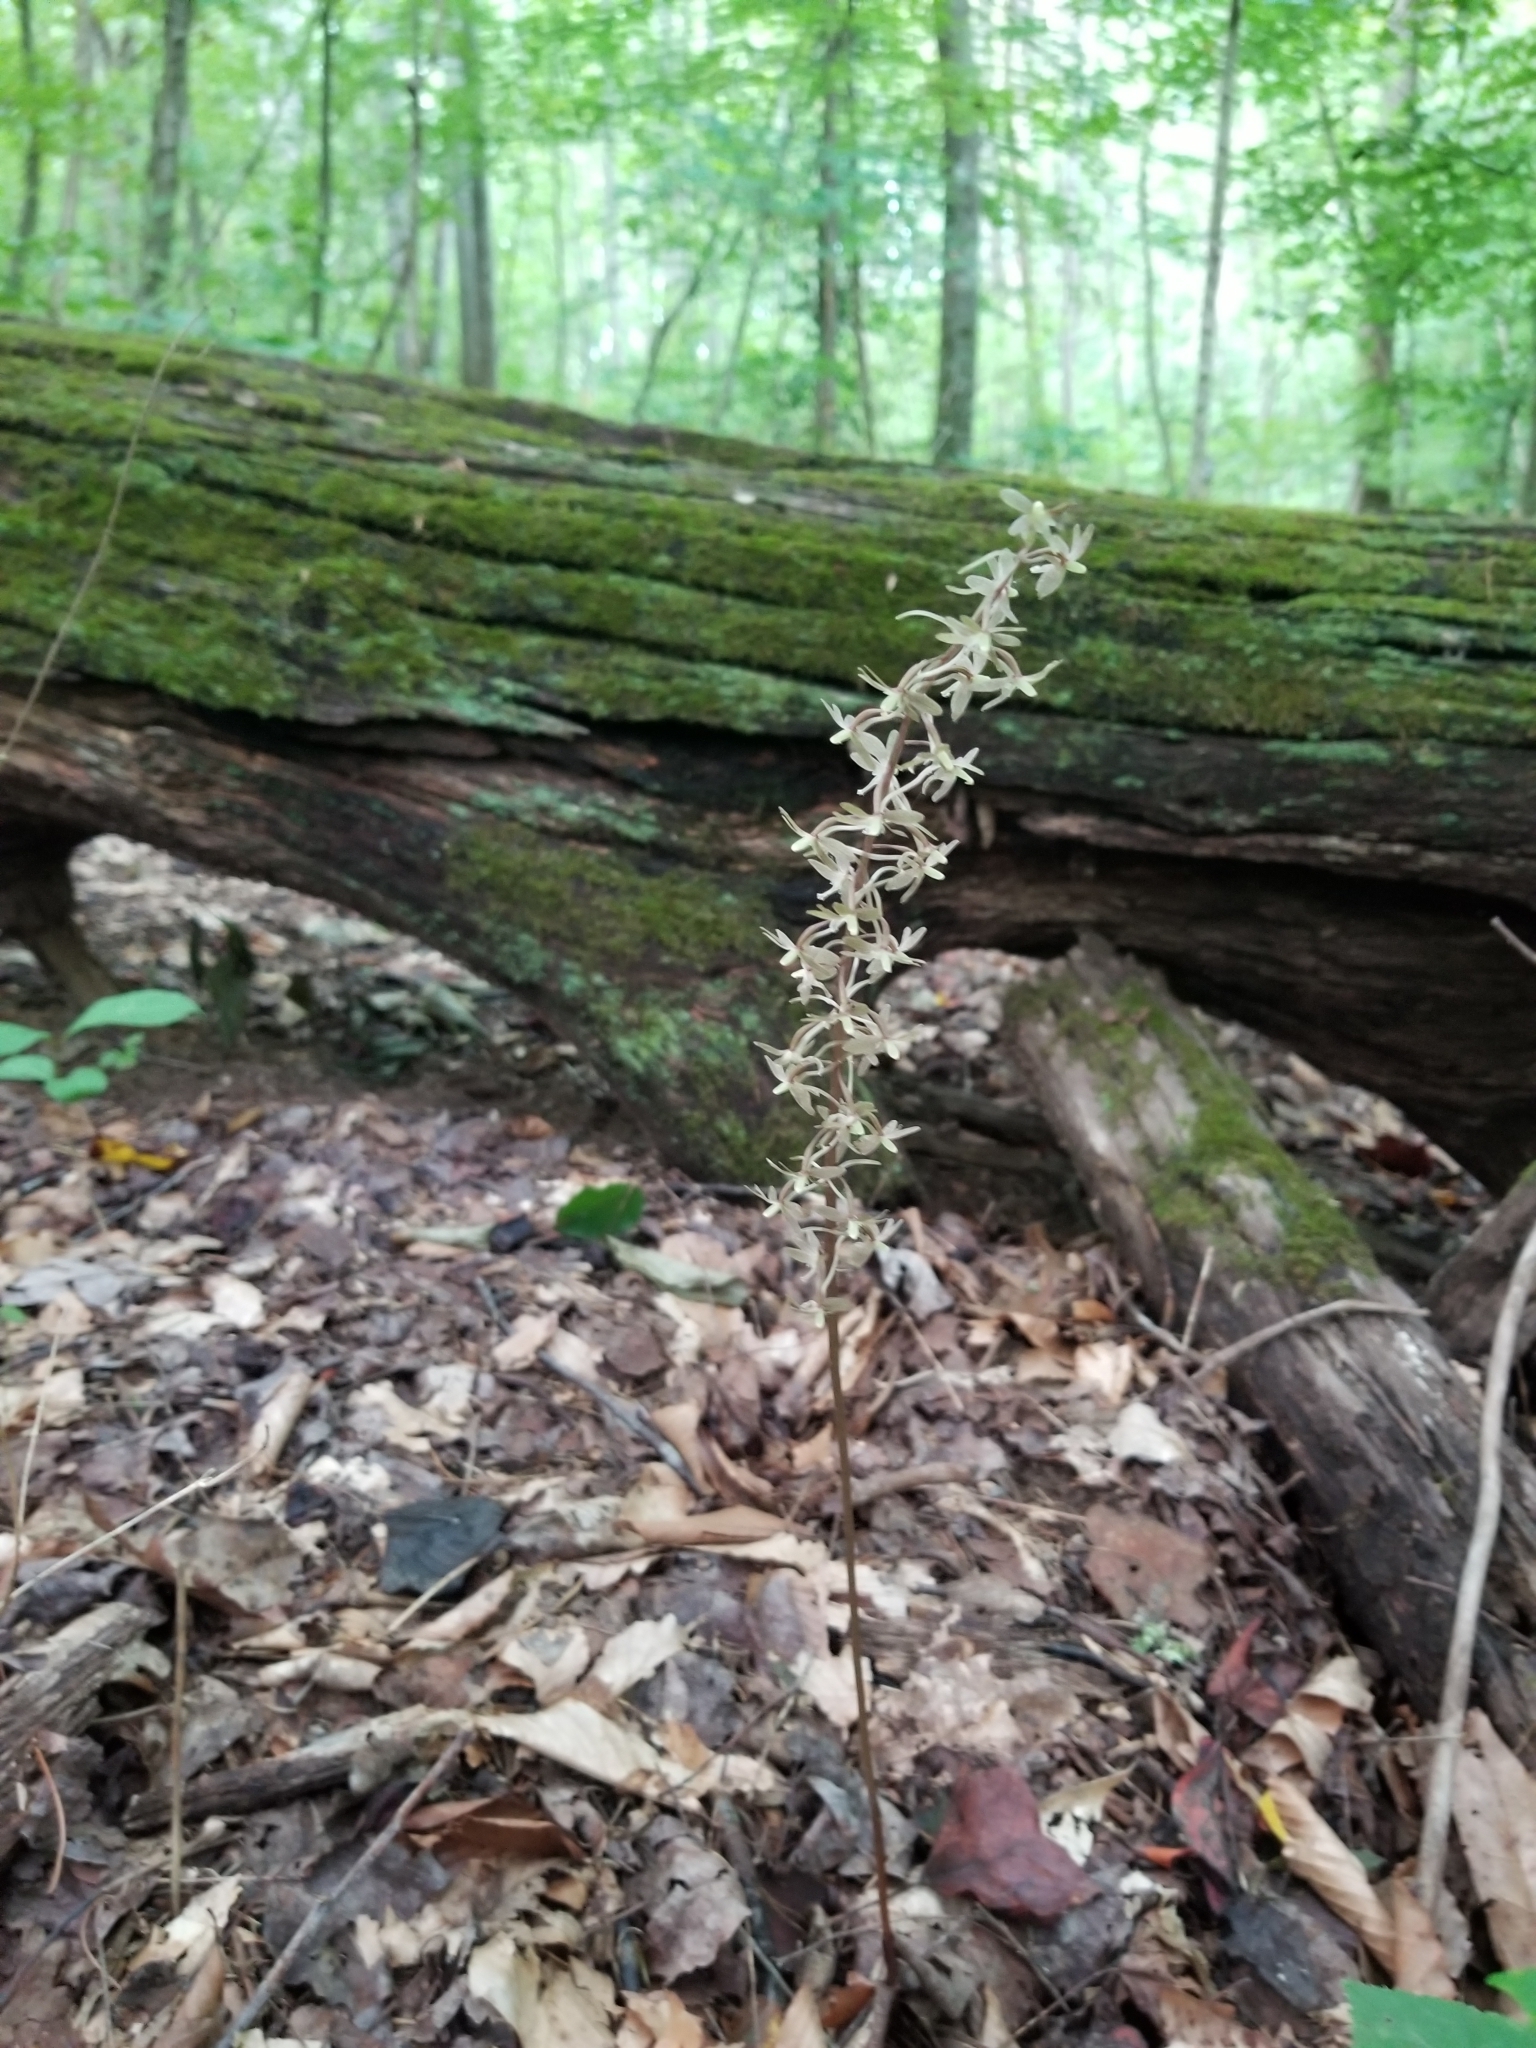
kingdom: Plantae
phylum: Tracheophyta
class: Liliopsida
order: Asparagales
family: Orchidaceae
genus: Tipularia
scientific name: Tipularia discolor
